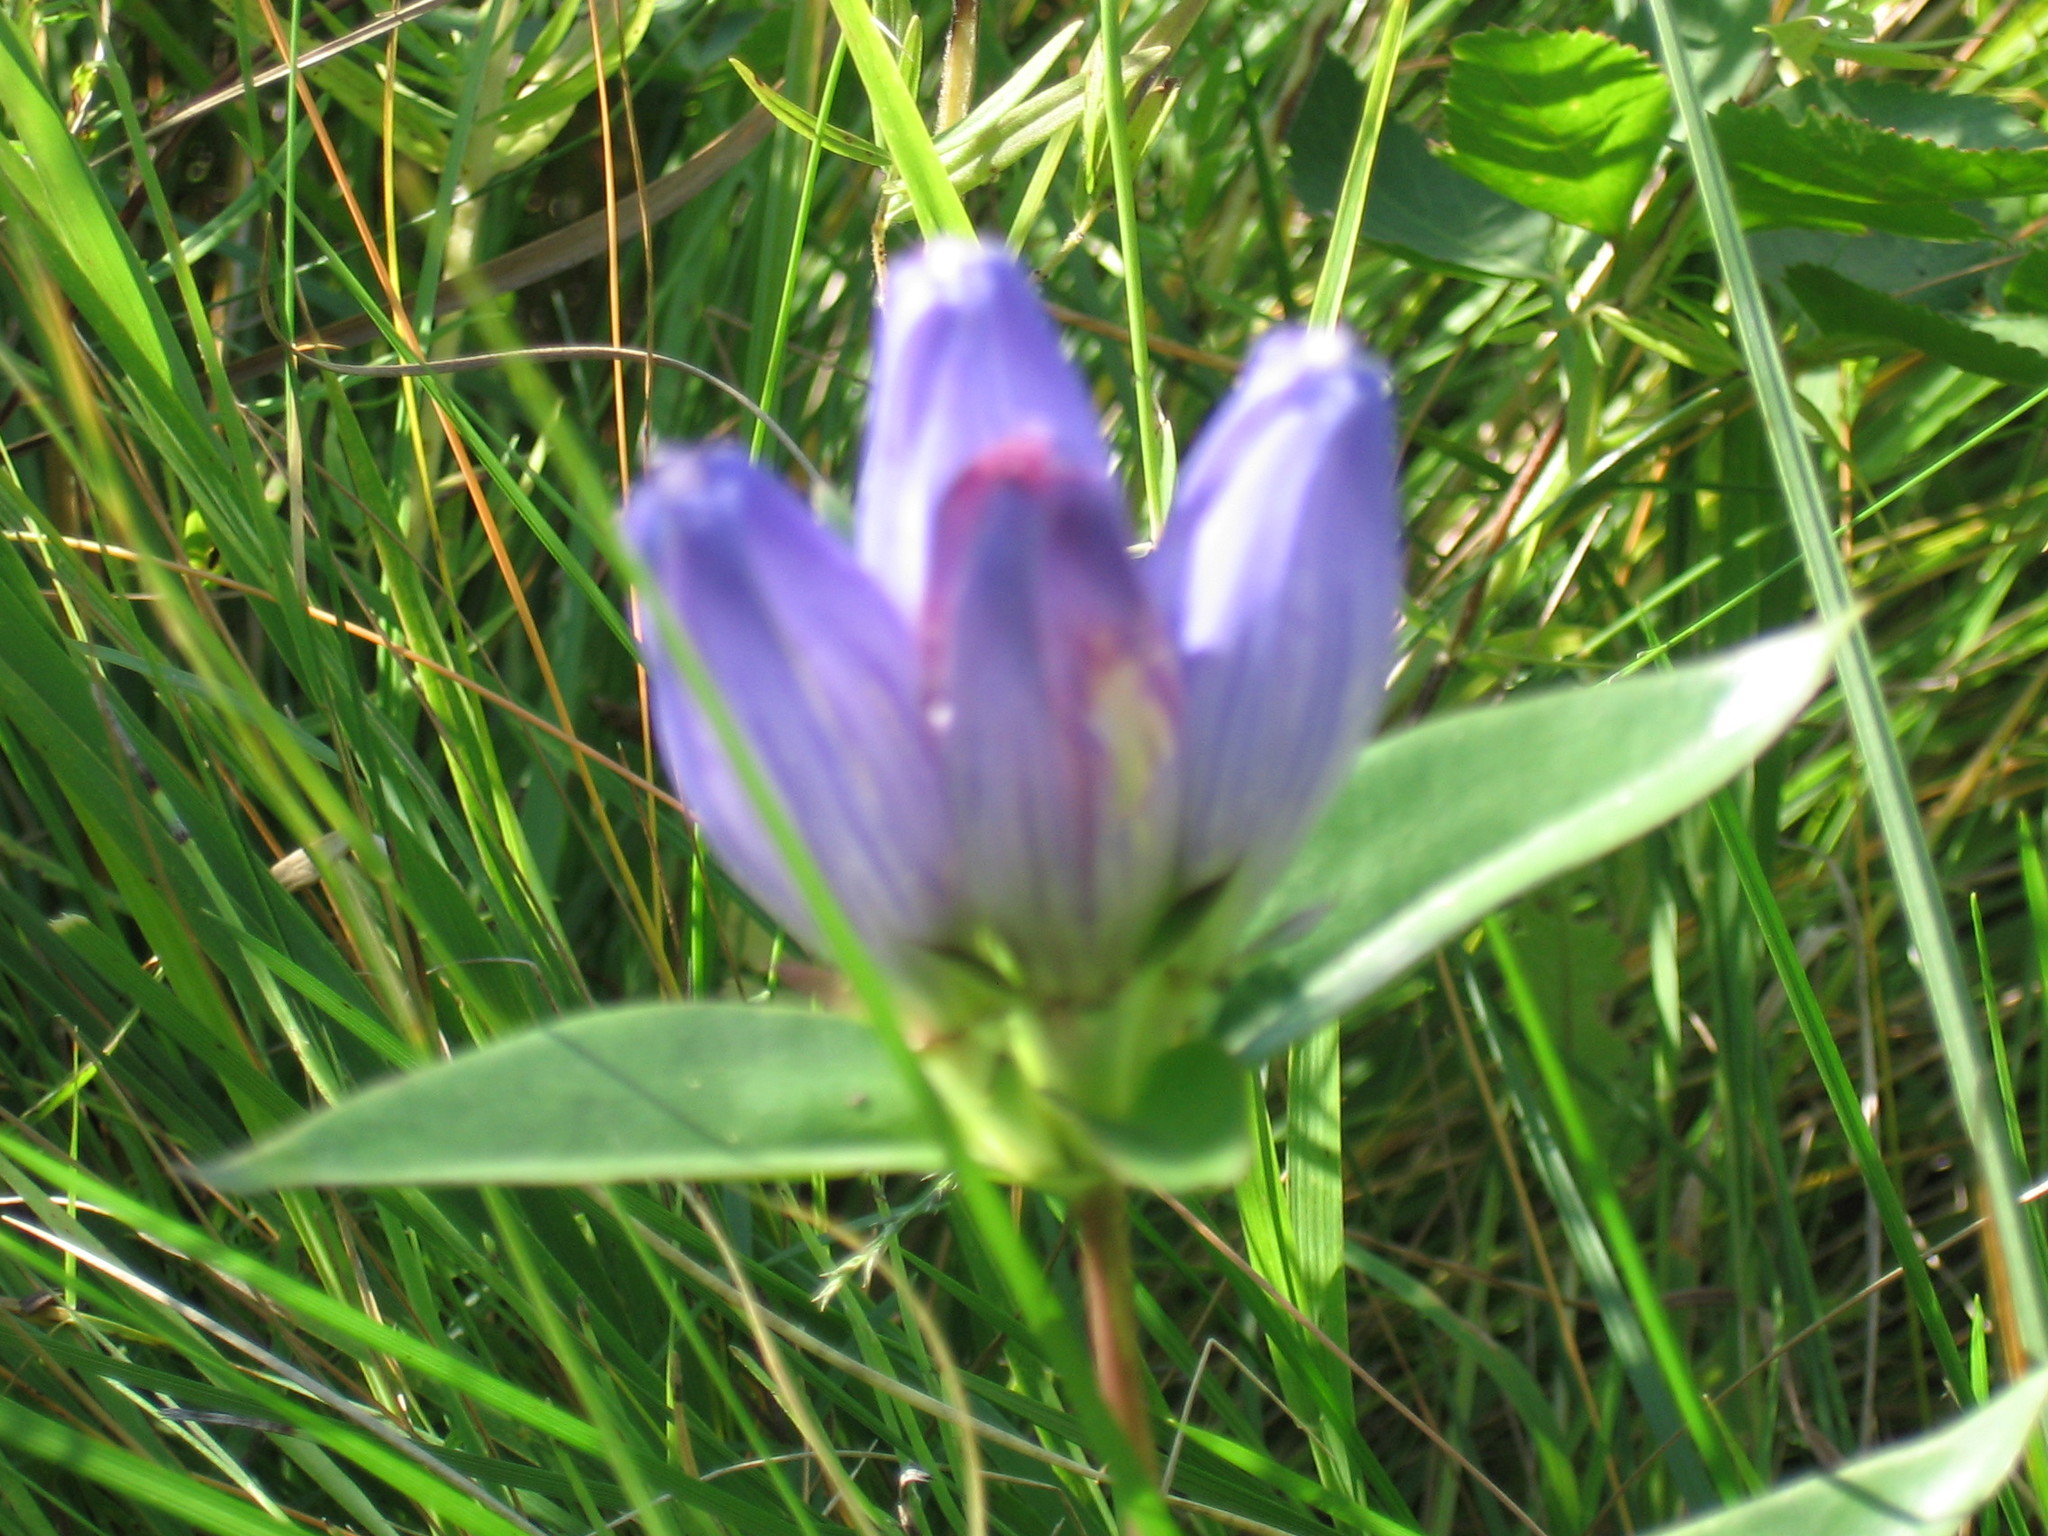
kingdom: Plantae
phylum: Tracheophyta
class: Magnoliopsida
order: Gentianales
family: Gentianaceae
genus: Gentiana
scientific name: Gentiana andrewsii
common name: Bottle gentian
